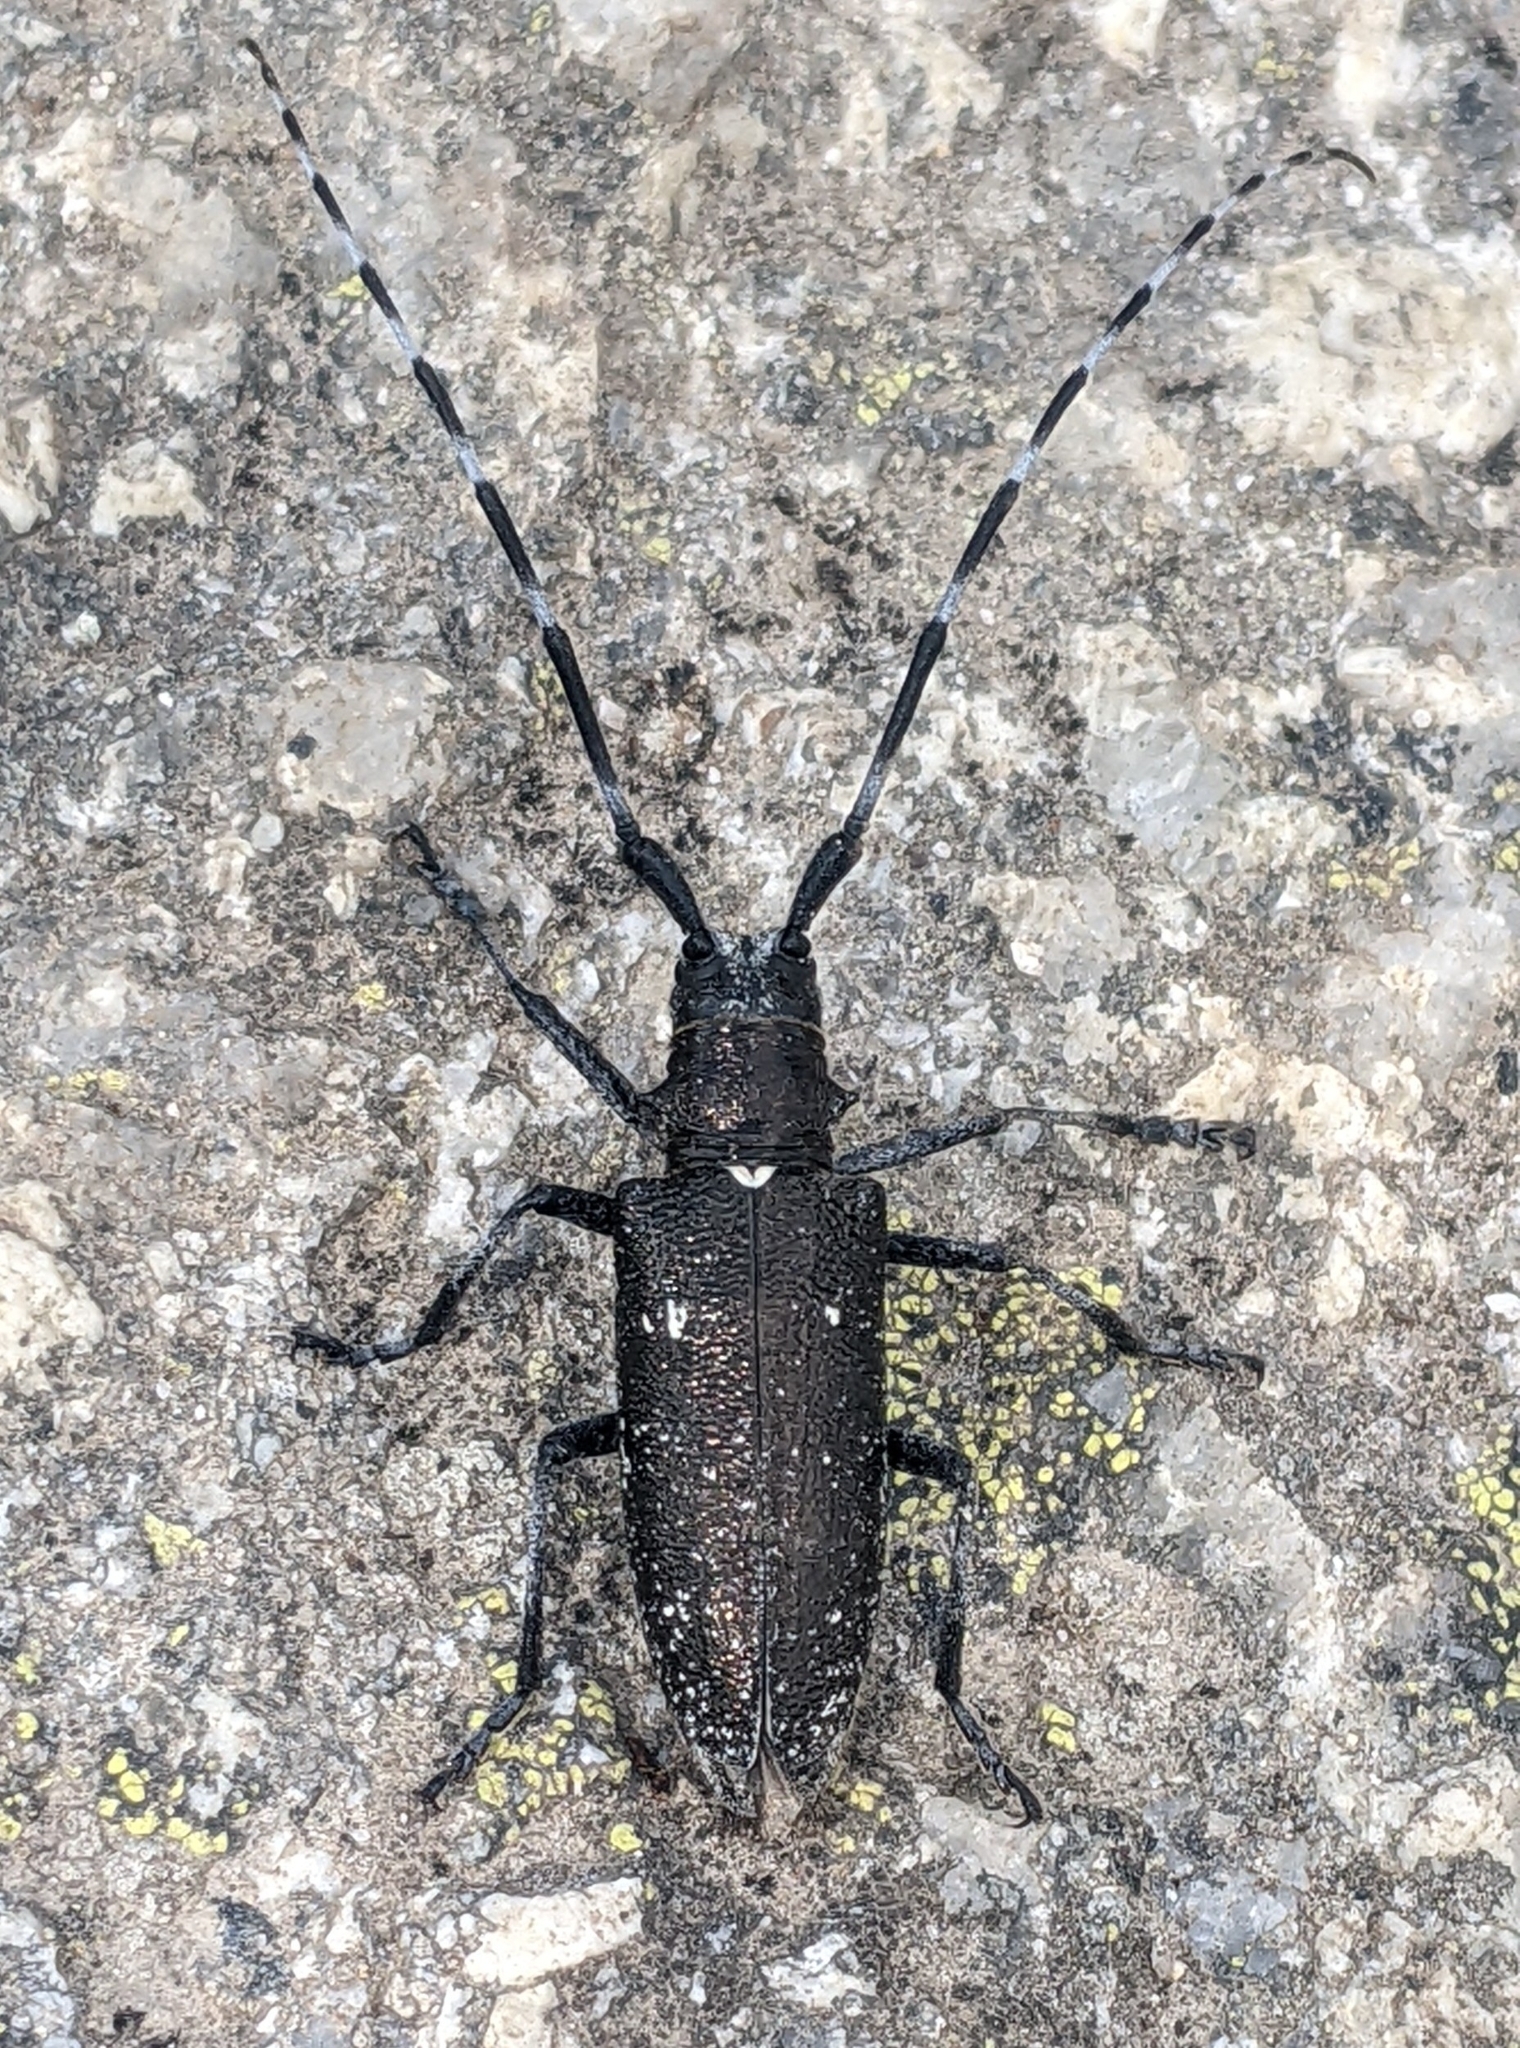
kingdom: Animalia
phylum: Arthropoda
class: Insecta
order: Coleoptera
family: Cerambycidae
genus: Monochamus
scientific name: Monochamus scutellatus
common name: White-spotted sawyer beetle
